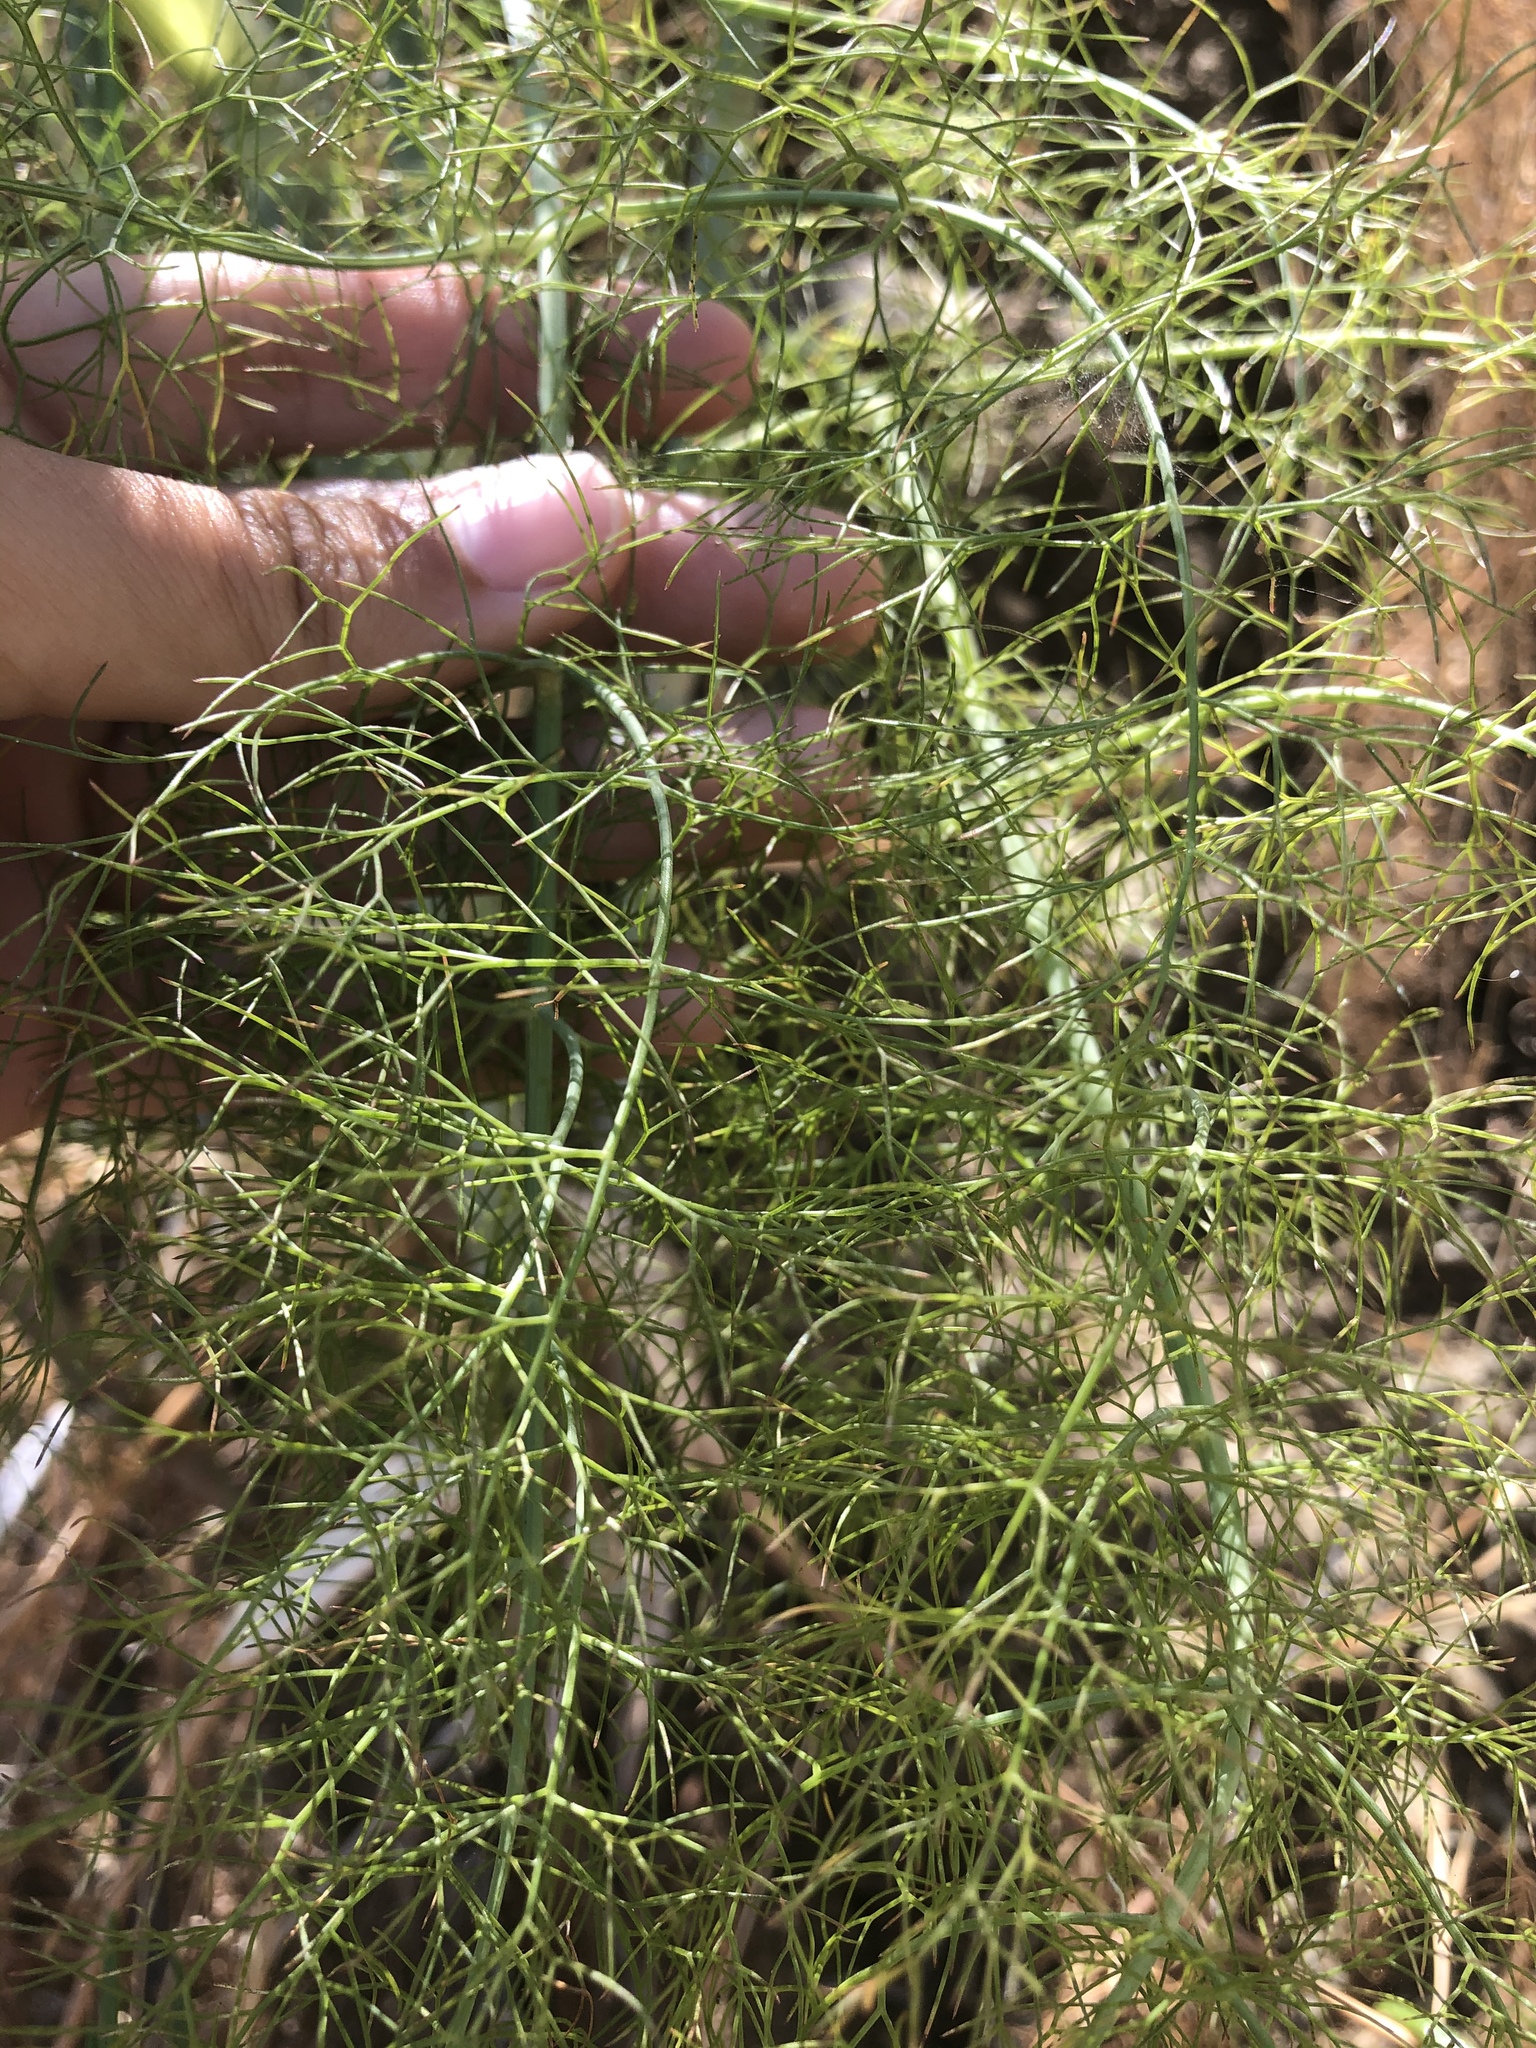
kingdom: Plantae
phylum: Tracheophyta
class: Magnoliopsida
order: Apiales
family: Apiaceae
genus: Foeniculum
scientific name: Foeniculum vulgare
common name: Fennel
